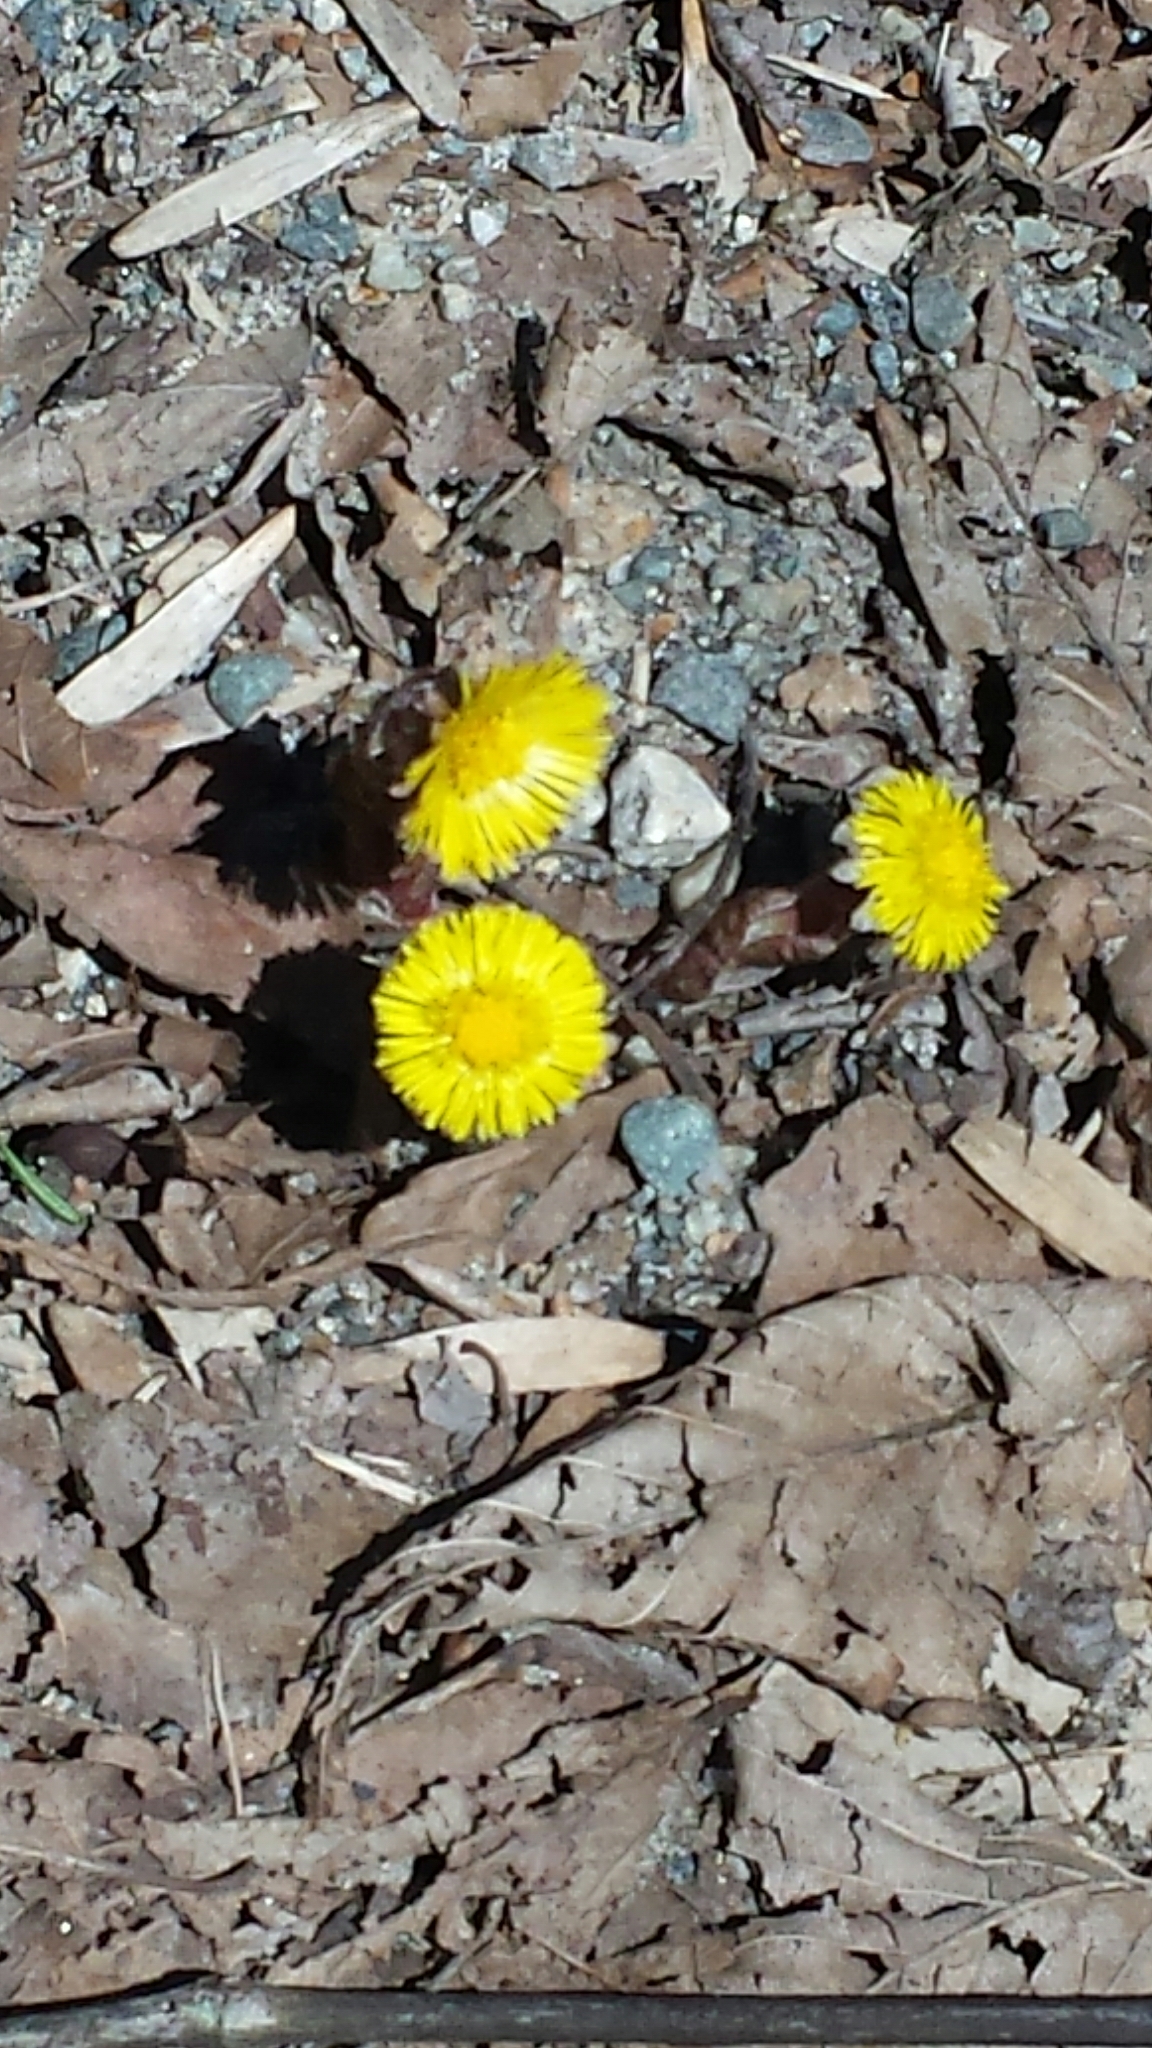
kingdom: Plantae
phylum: Tracheophyta
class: Magnoliopsida
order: Asterales
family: Asteraceae
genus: Tussilago
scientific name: Tussilago farfara
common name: Coltsfoot
